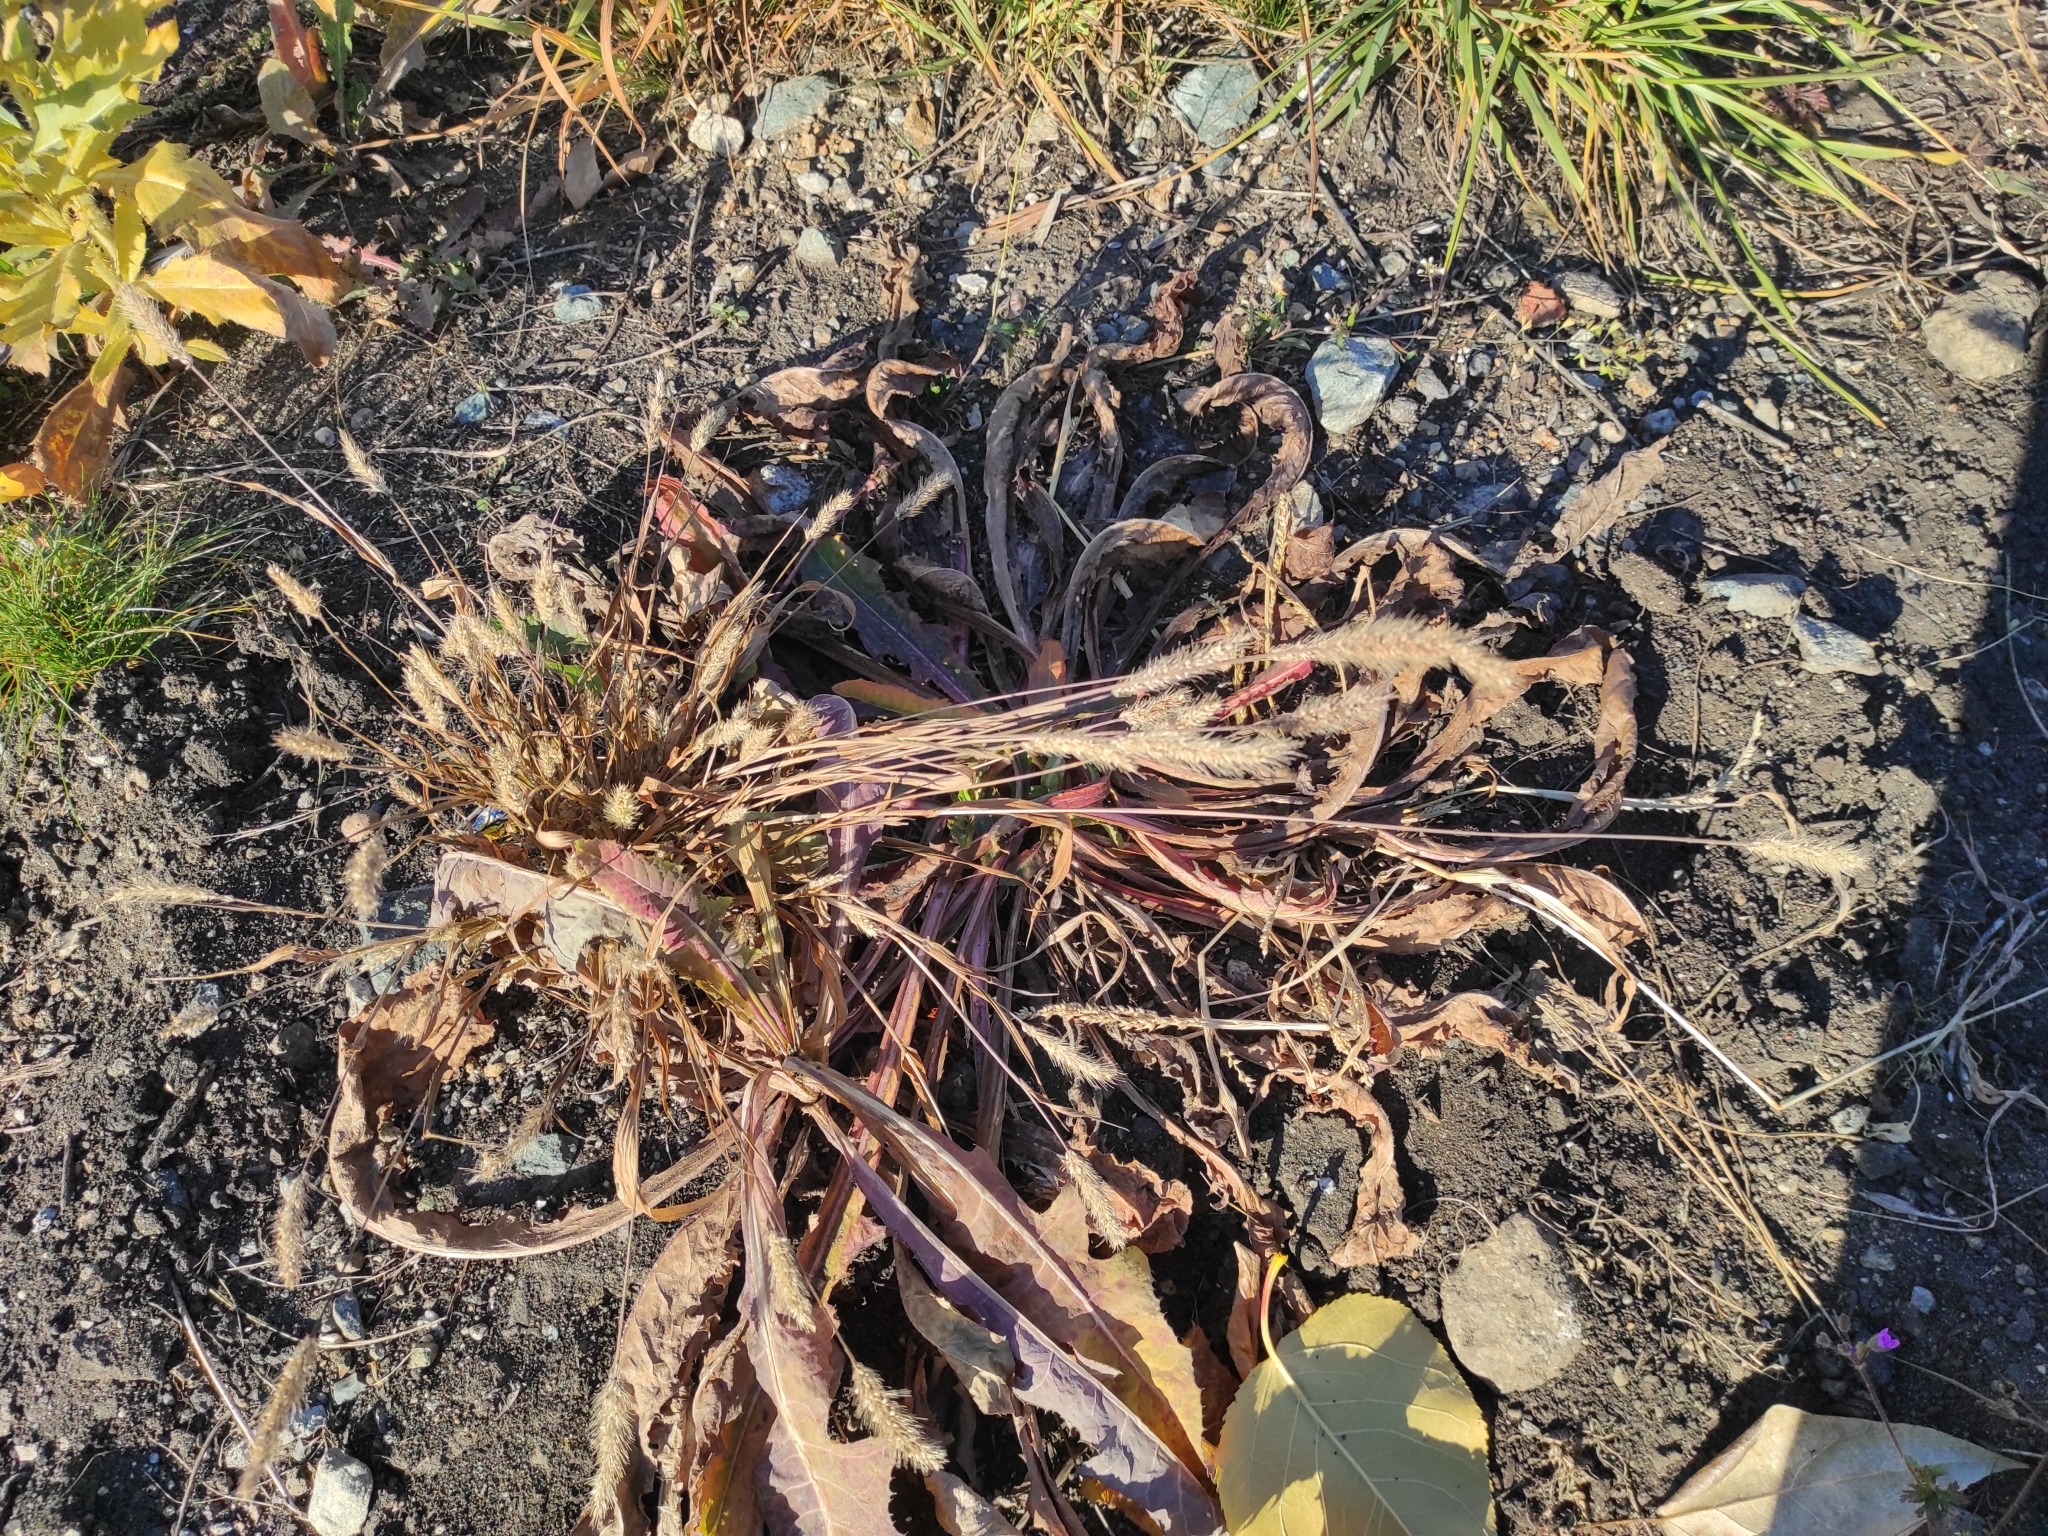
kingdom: Plantae
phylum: Tracheophyta
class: Liliopsida
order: Poales
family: Poaceae
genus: Setaria
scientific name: Setaria viridis
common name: Green bristlegrass
